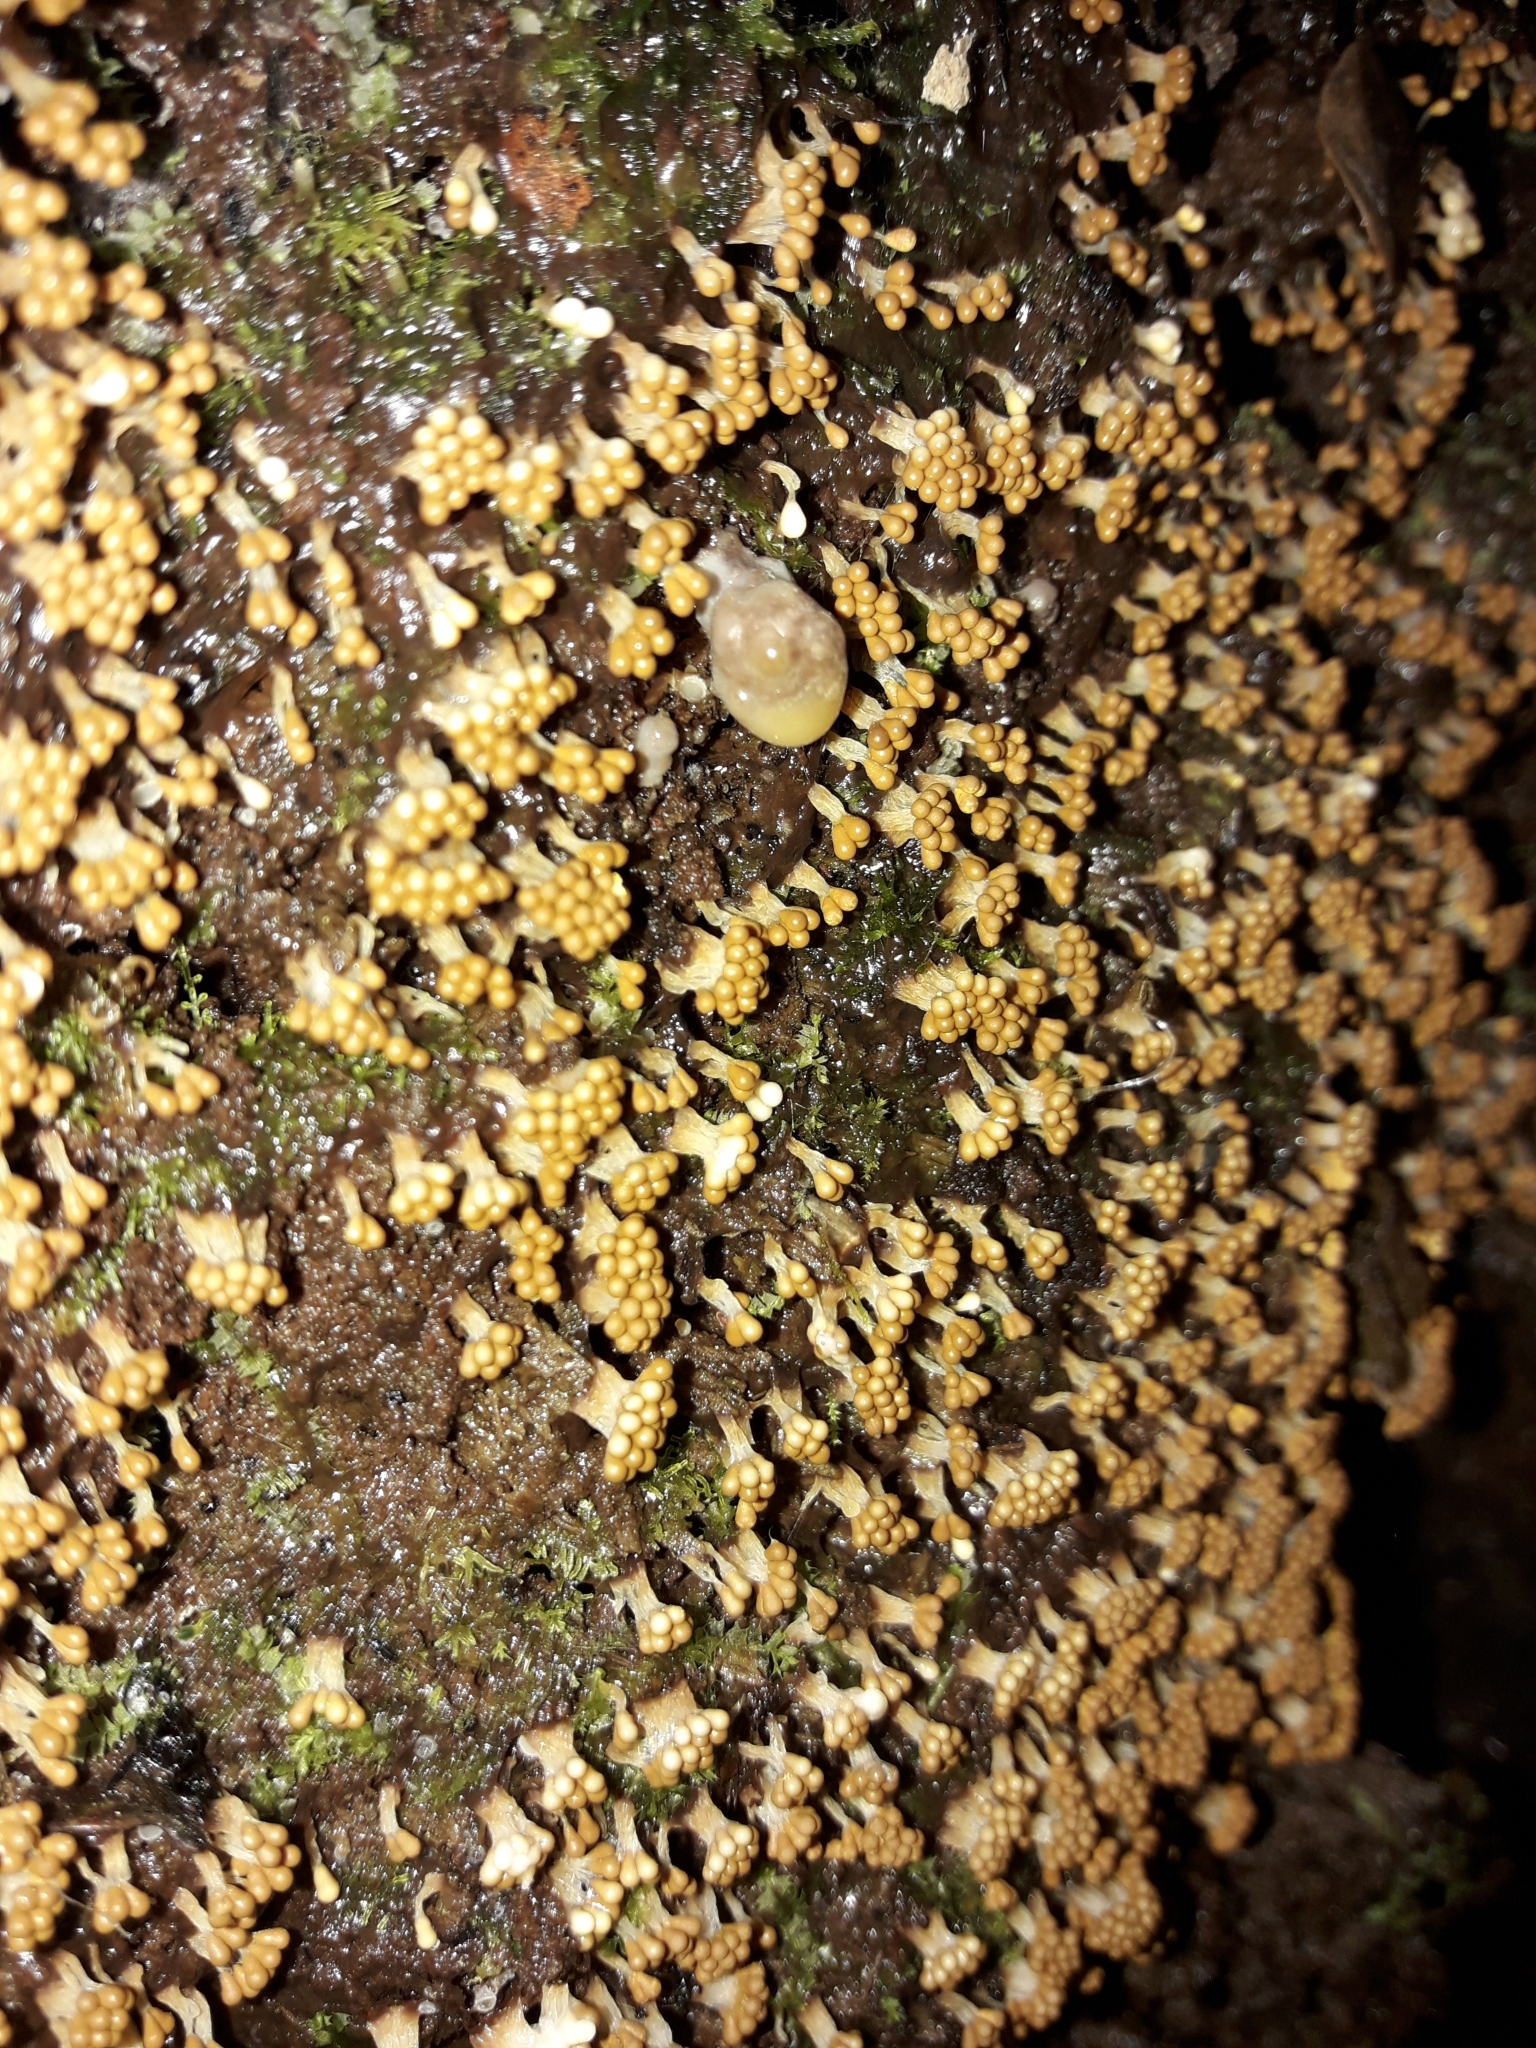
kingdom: Protozoa
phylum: Mycetozoa
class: Myxomycetes
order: Trichiales
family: Trichiaceae
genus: Oligonema
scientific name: Oligonema verrucosum
